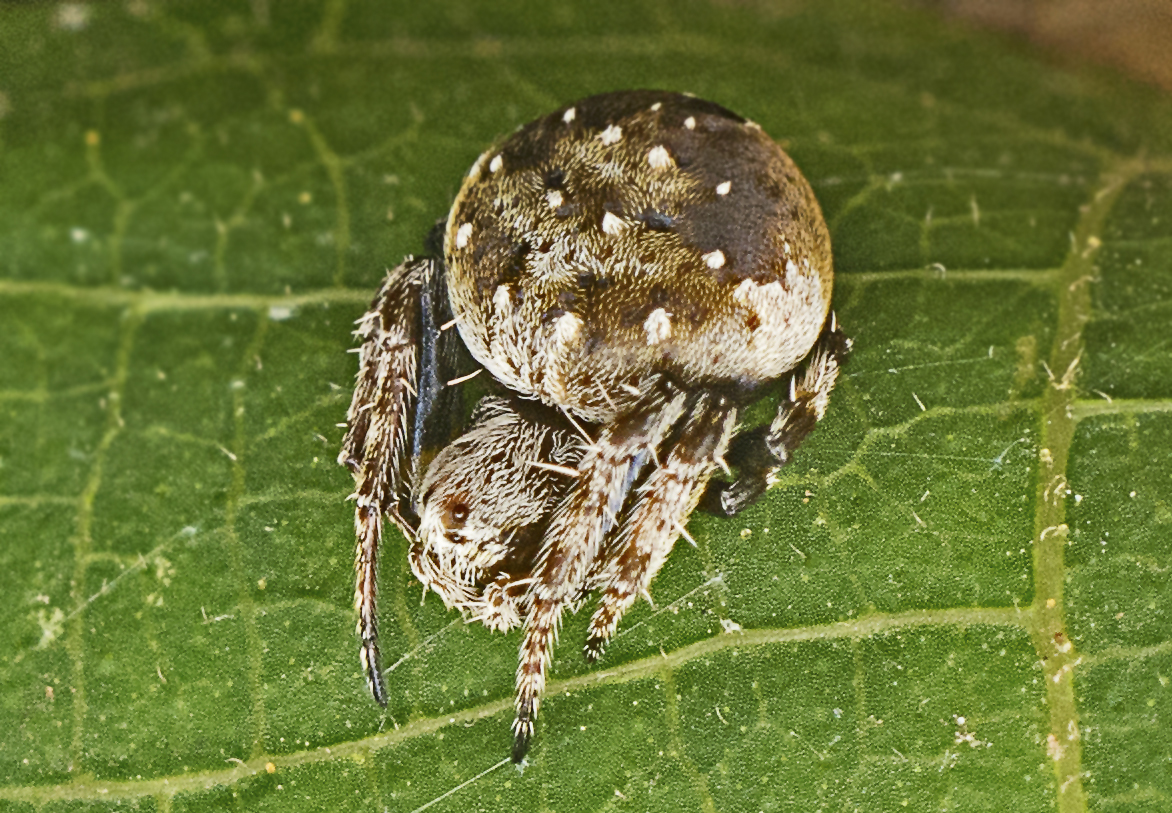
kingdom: Animalia
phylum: Arthropoda
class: Arachnida
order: Araneae
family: Araneidae
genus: Araneus
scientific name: Araneus rotundulus
